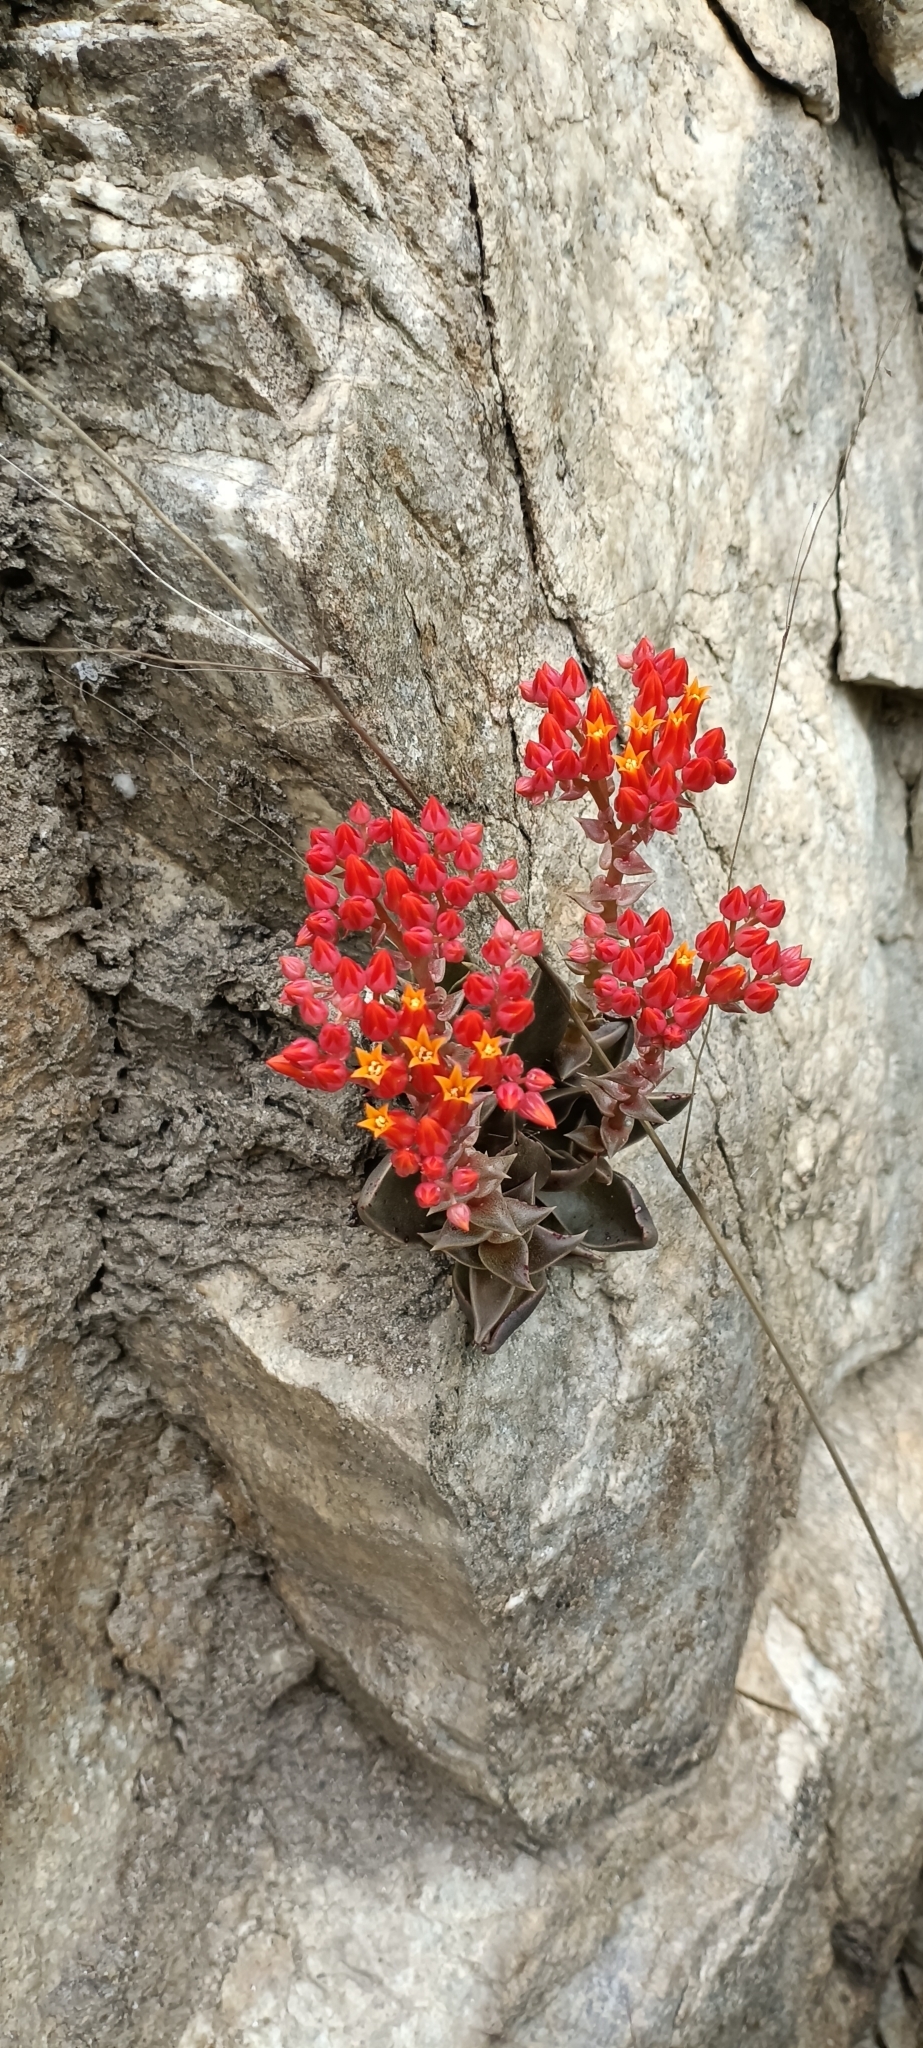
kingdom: Plantae
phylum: Tracheophyta
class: Magnoliopsida
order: Saxifragales
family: Crassulaceae
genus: Dudleya
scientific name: Dudleya cymosa
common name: Canyon dudleya
